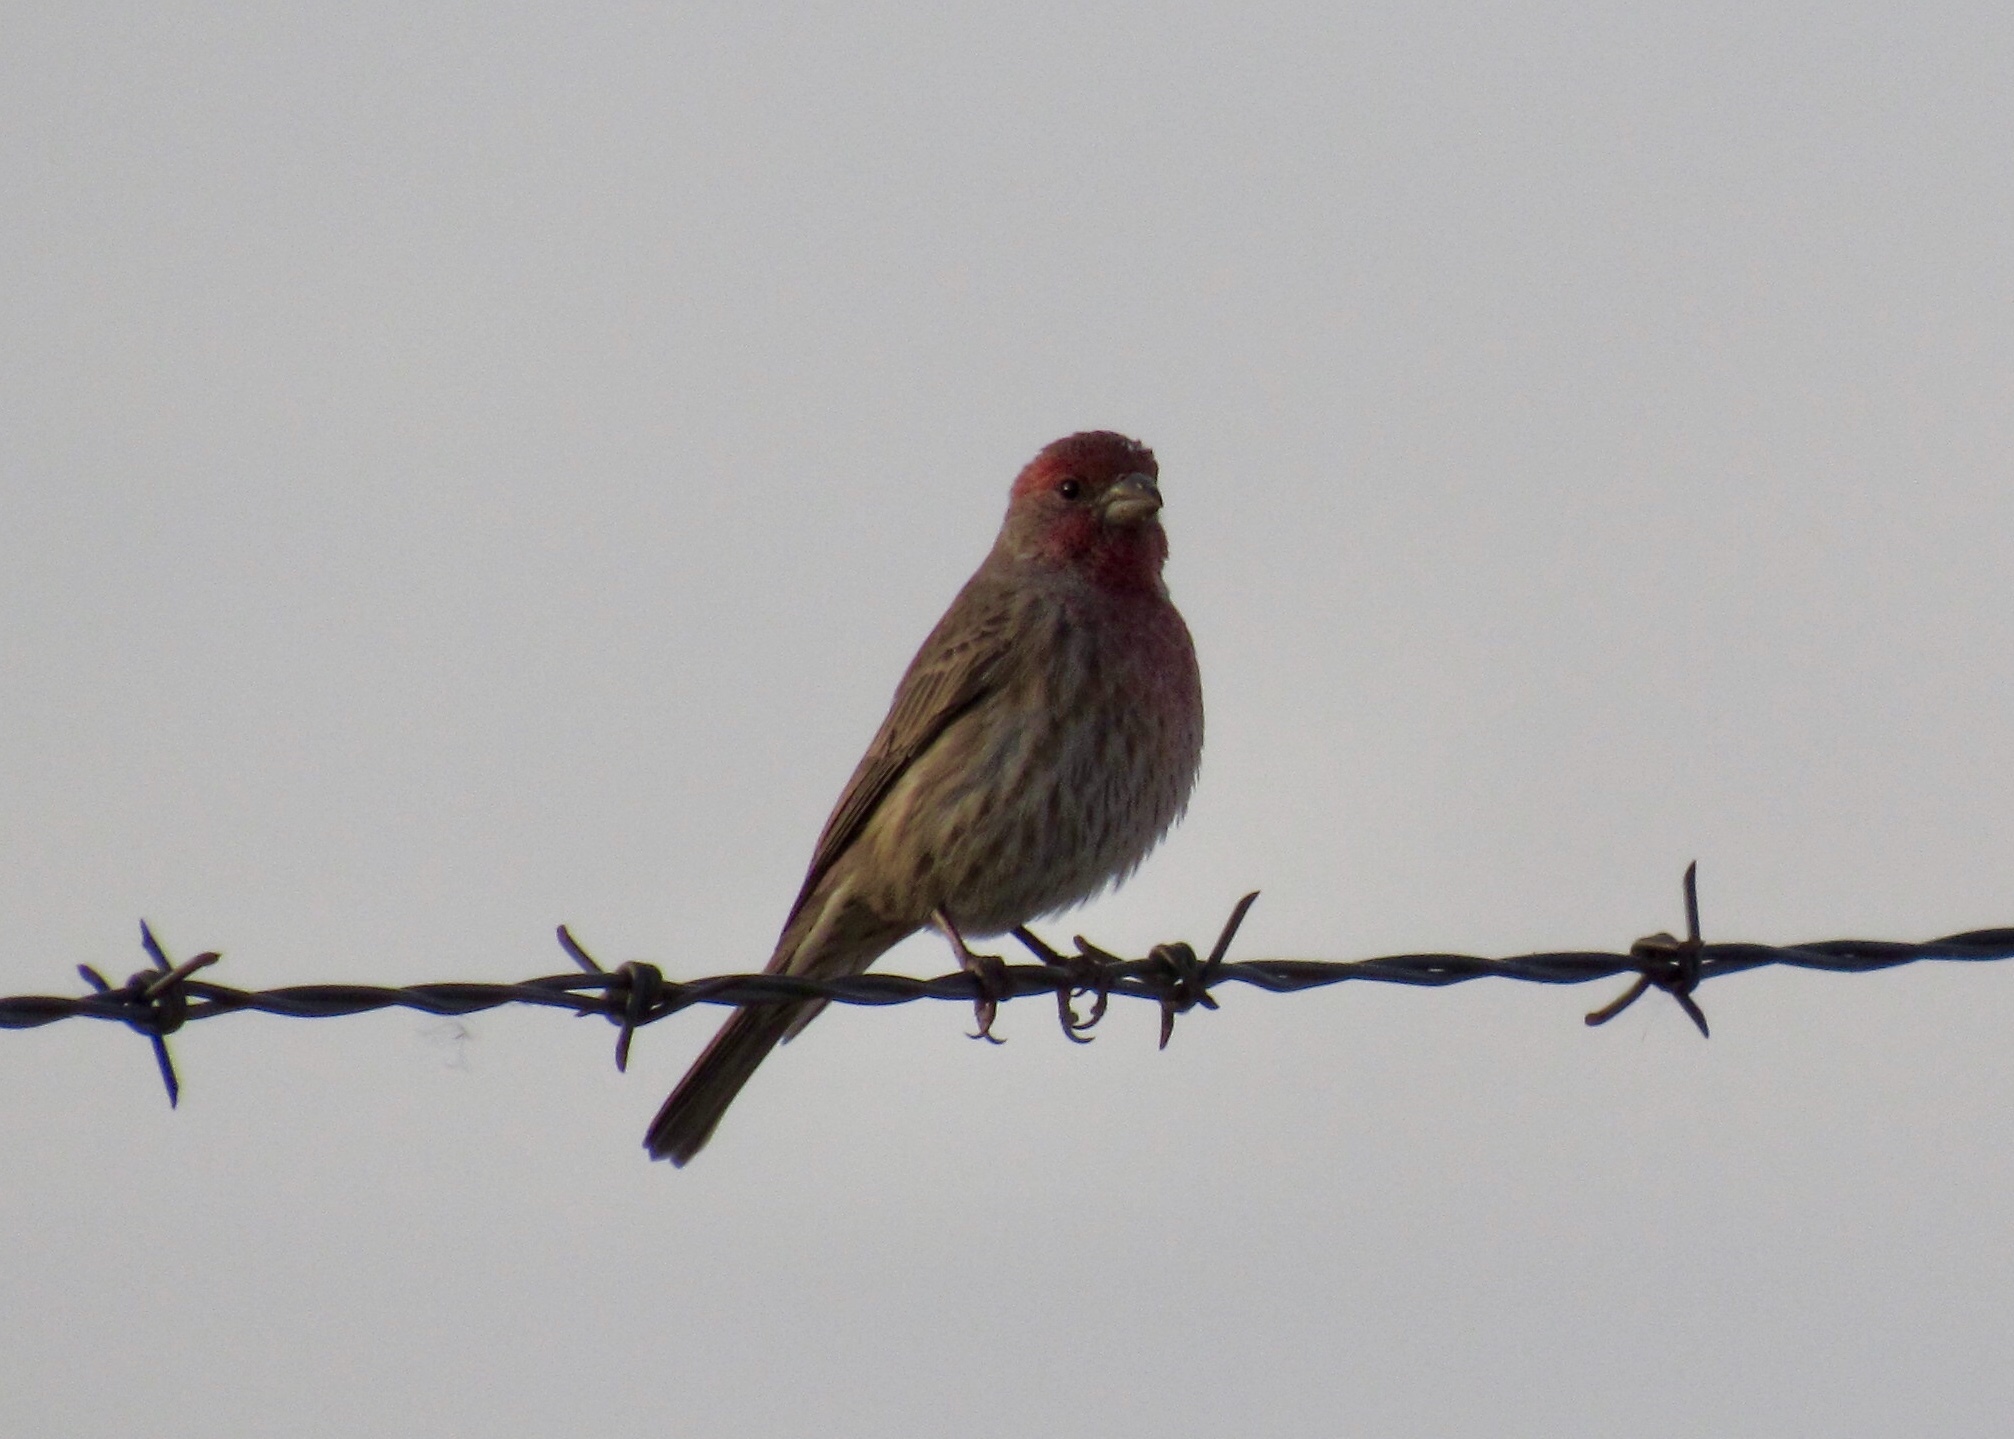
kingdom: Animalia
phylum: Chordata
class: Aves
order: Passeriformes
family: Fringillidae
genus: Haemorhous
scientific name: Haemorhous mexicanus
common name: House finch
